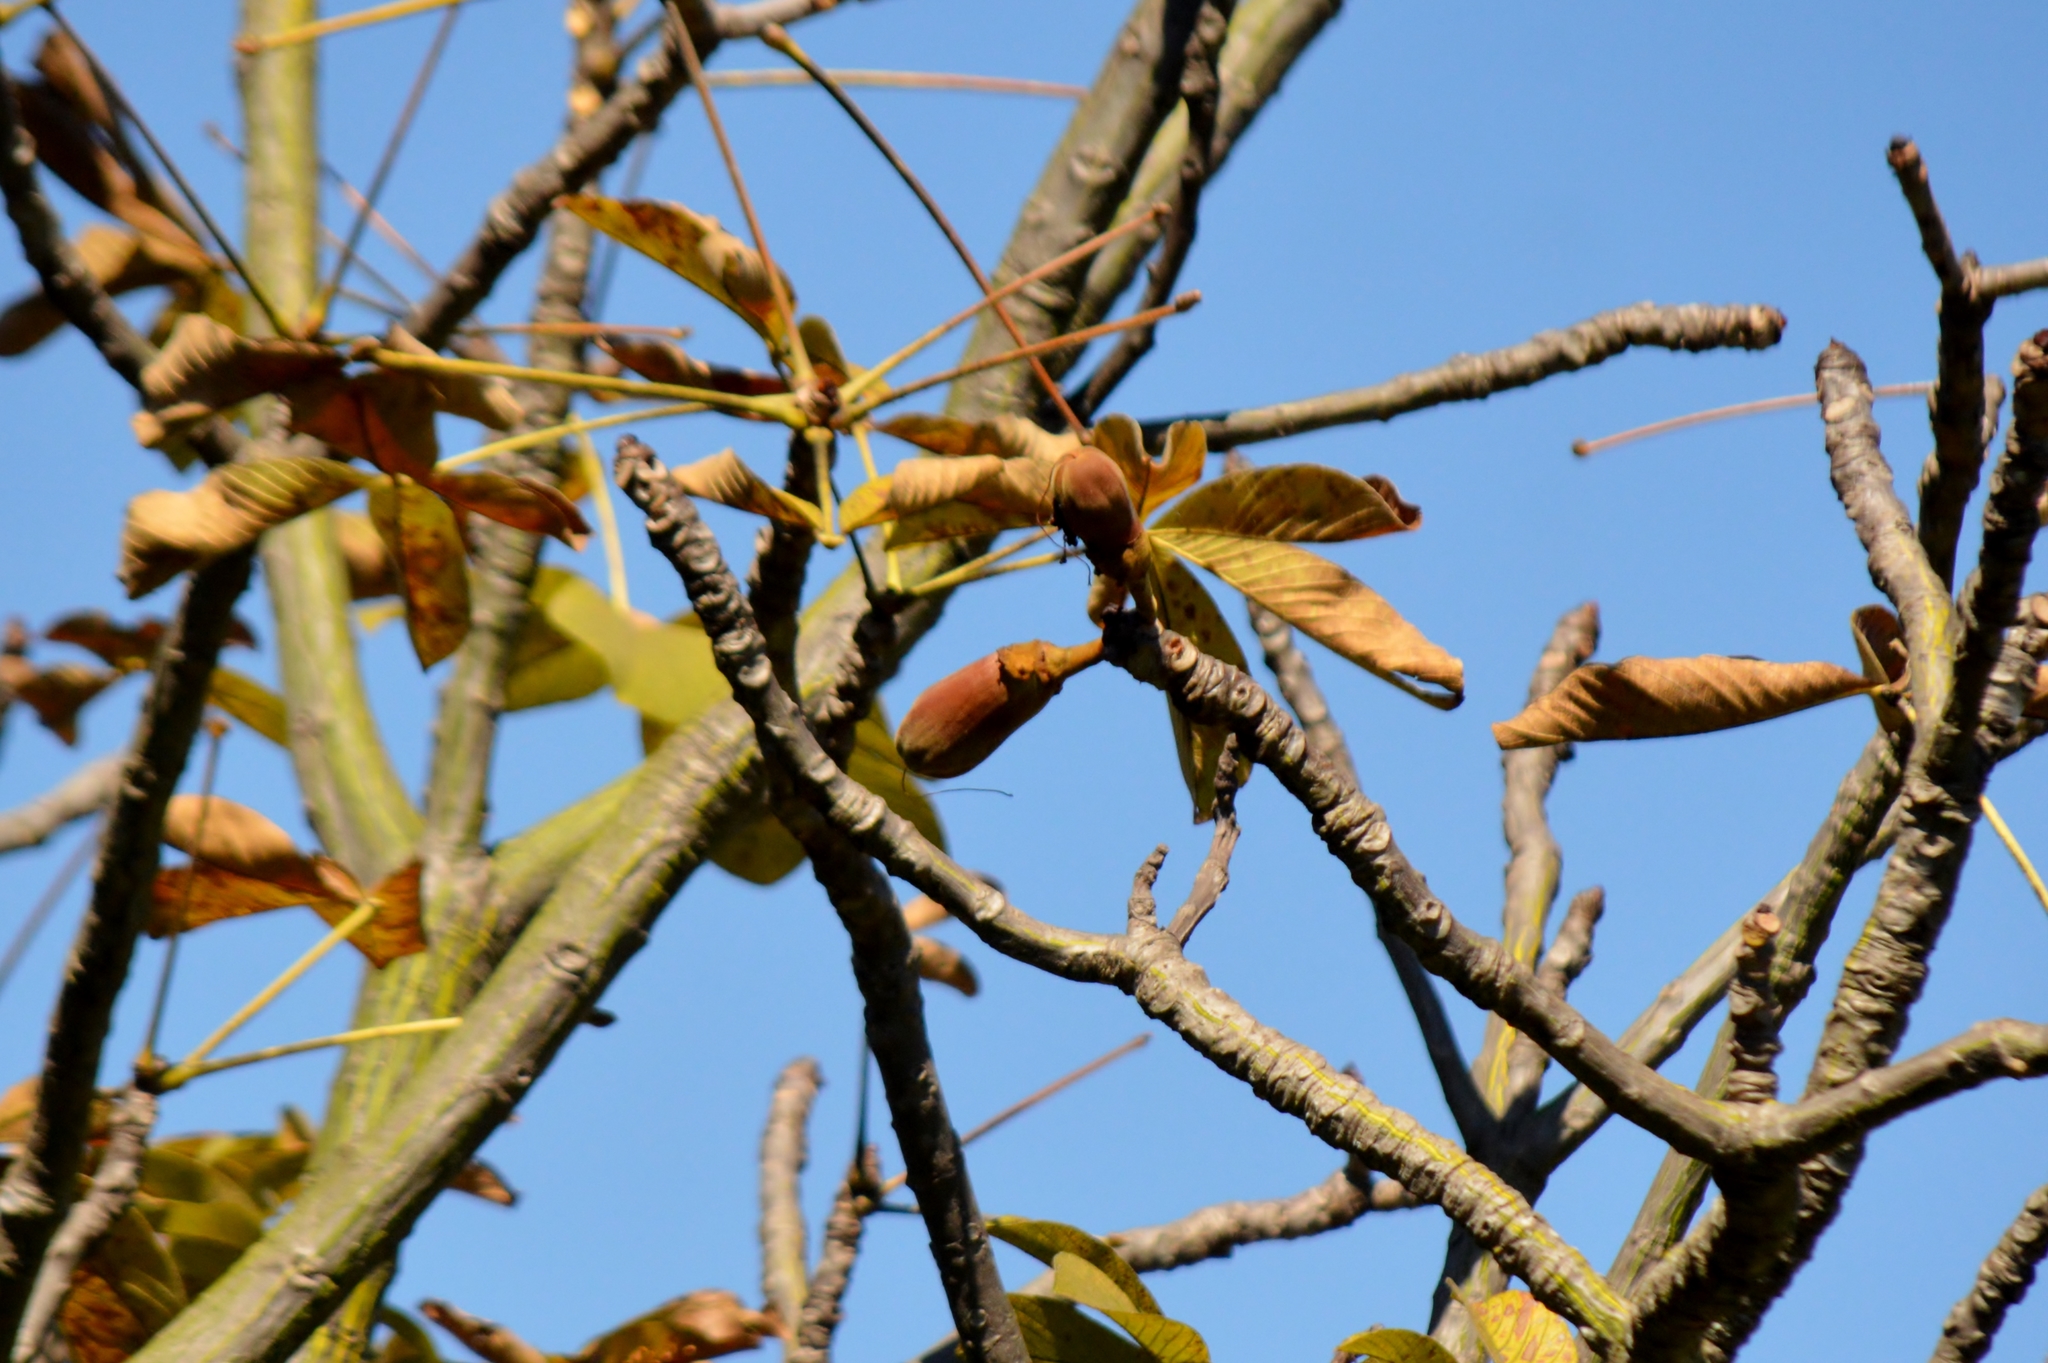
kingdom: Plantae
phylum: Tracheophyta
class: Magnoliopsida
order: Malvales
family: Malvaceae
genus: Pseudobombax
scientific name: Pseudobombax longiflorum
